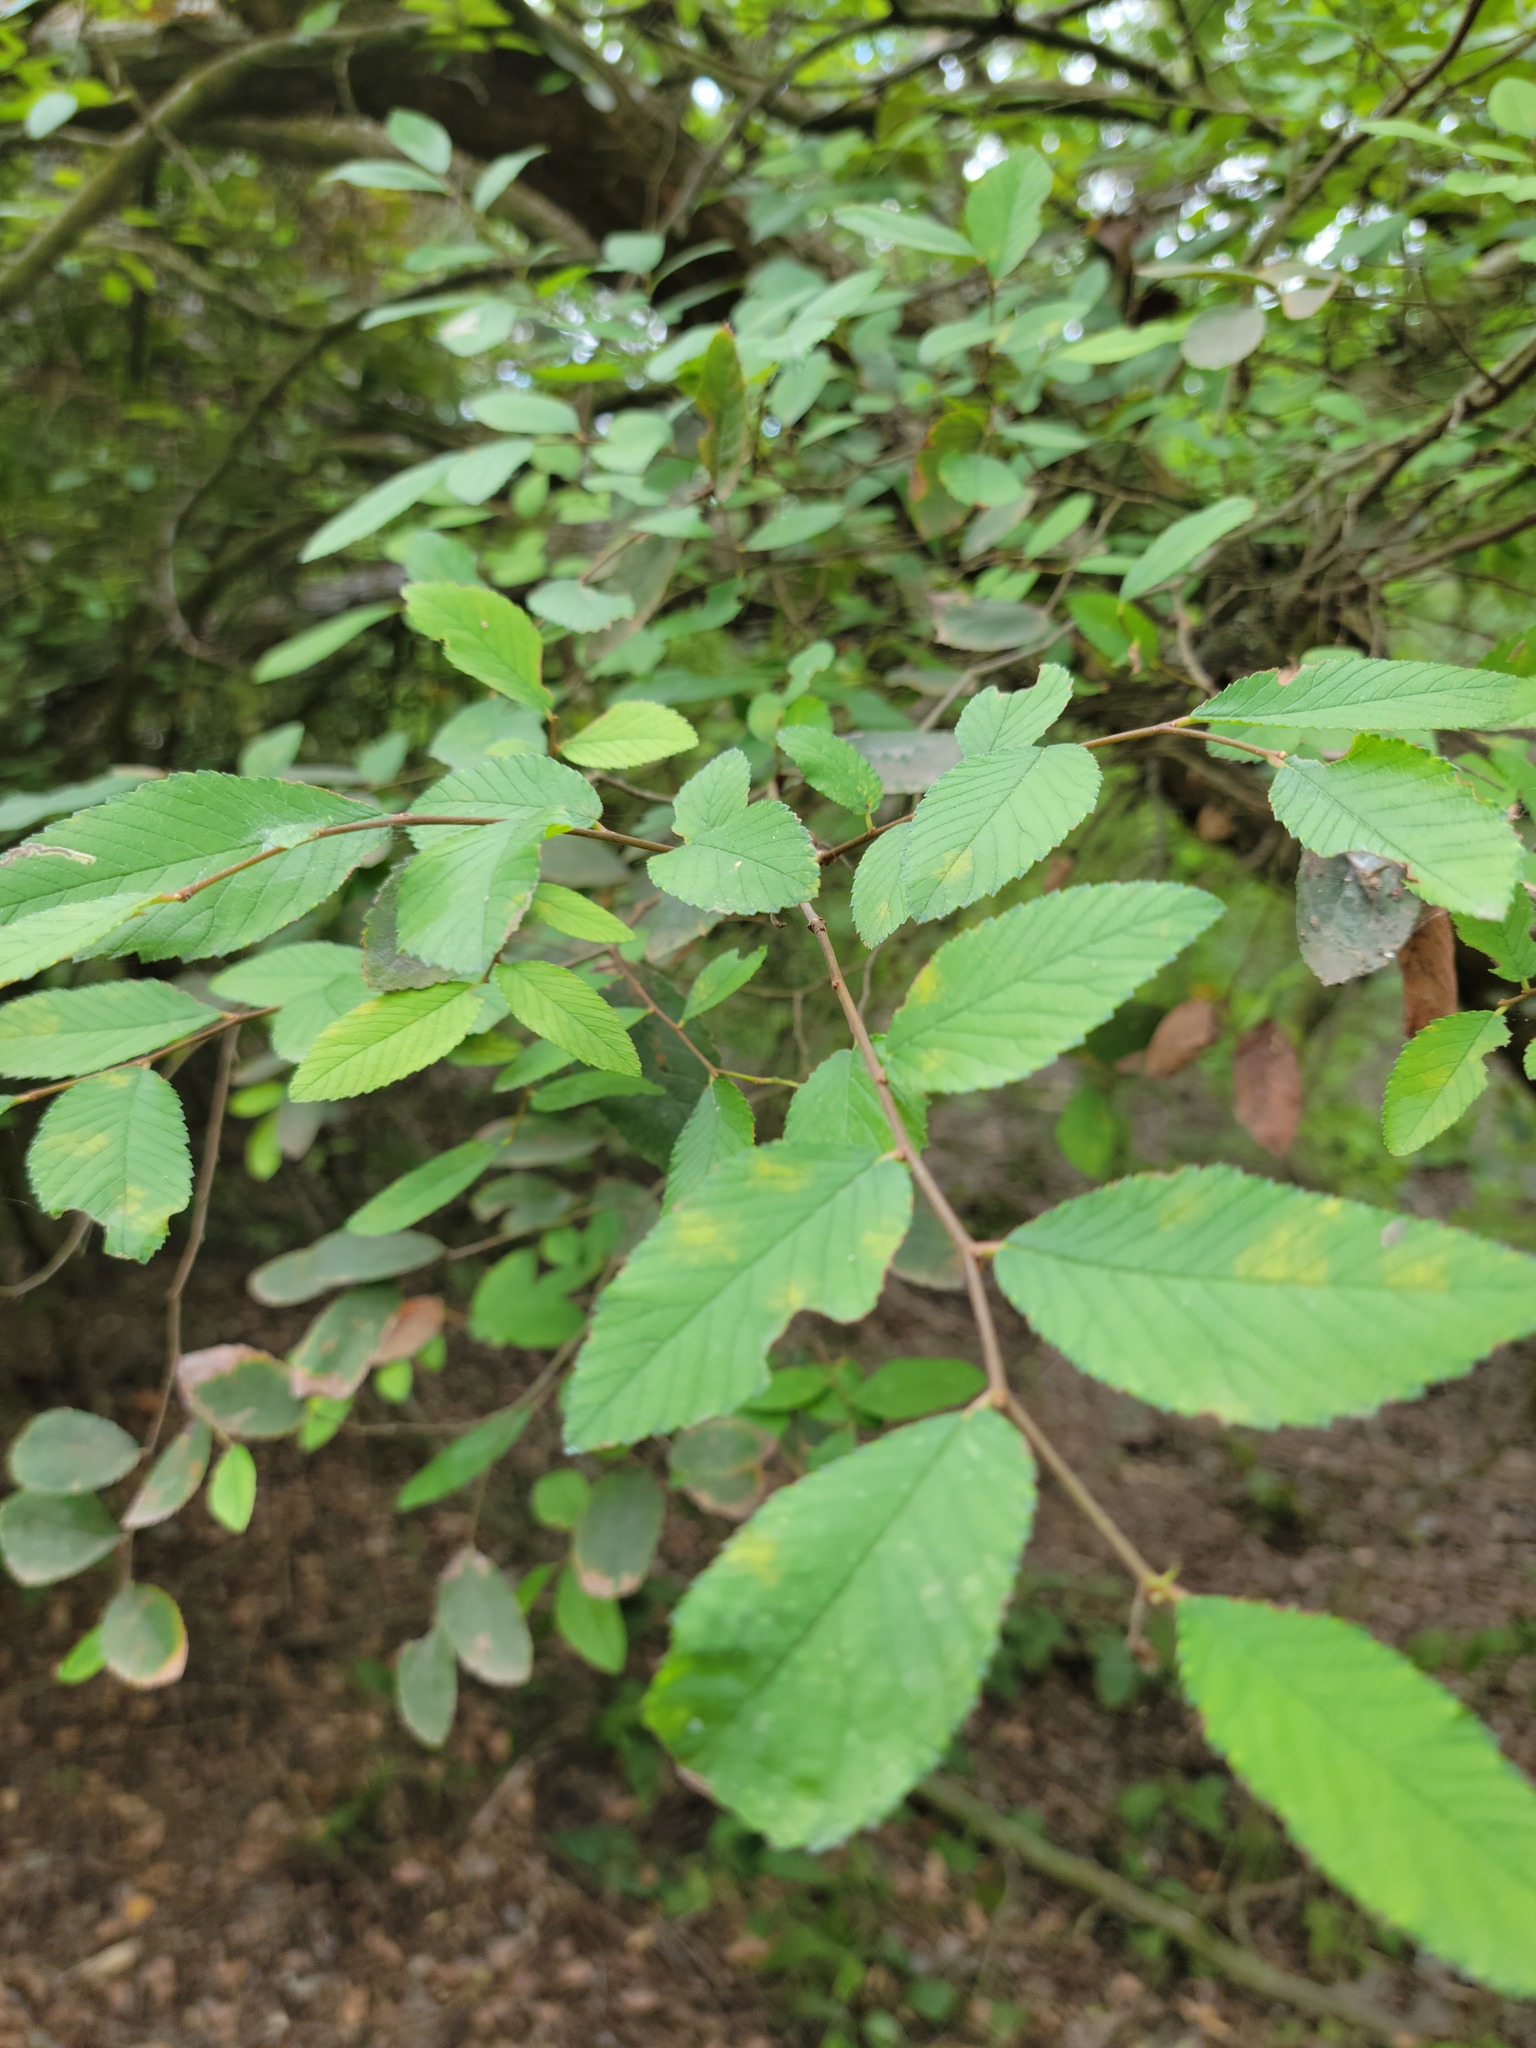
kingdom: Plantae
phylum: Tracheophyta
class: Magnoliopsida
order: Rosales
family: Ulmaceae
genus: Ulmus
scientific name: Ulmus crassifolia
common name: Basket elm
